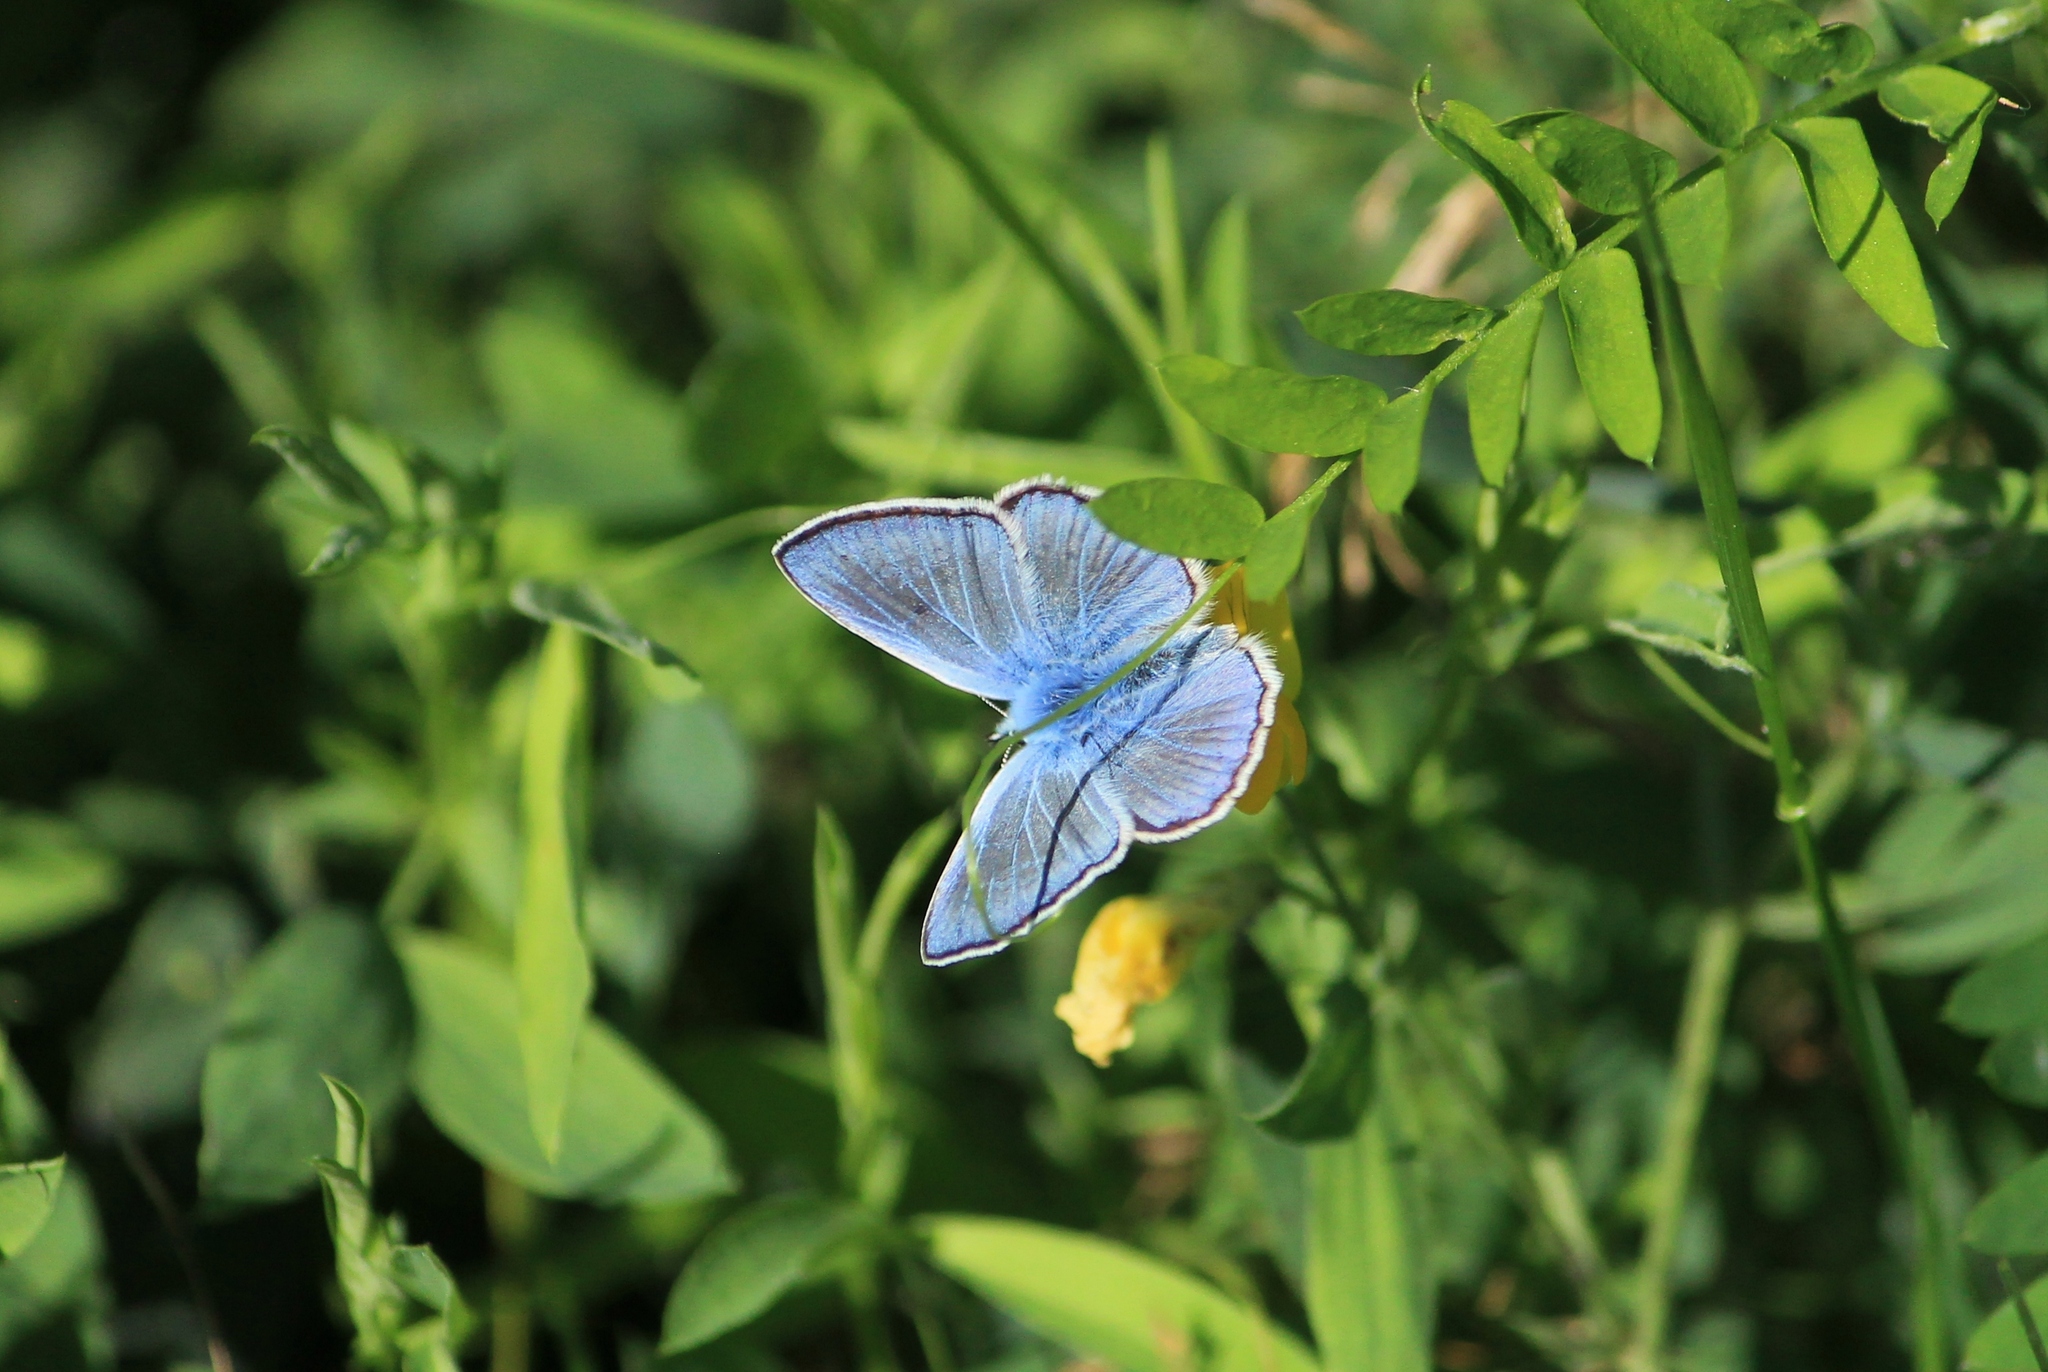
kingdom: Animalia
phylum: Arthropoda
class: Insecta
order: Lepidoptera
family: Lycaenidae
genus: Polyommatus
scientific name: Polyommatus icarus
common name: Common blue
